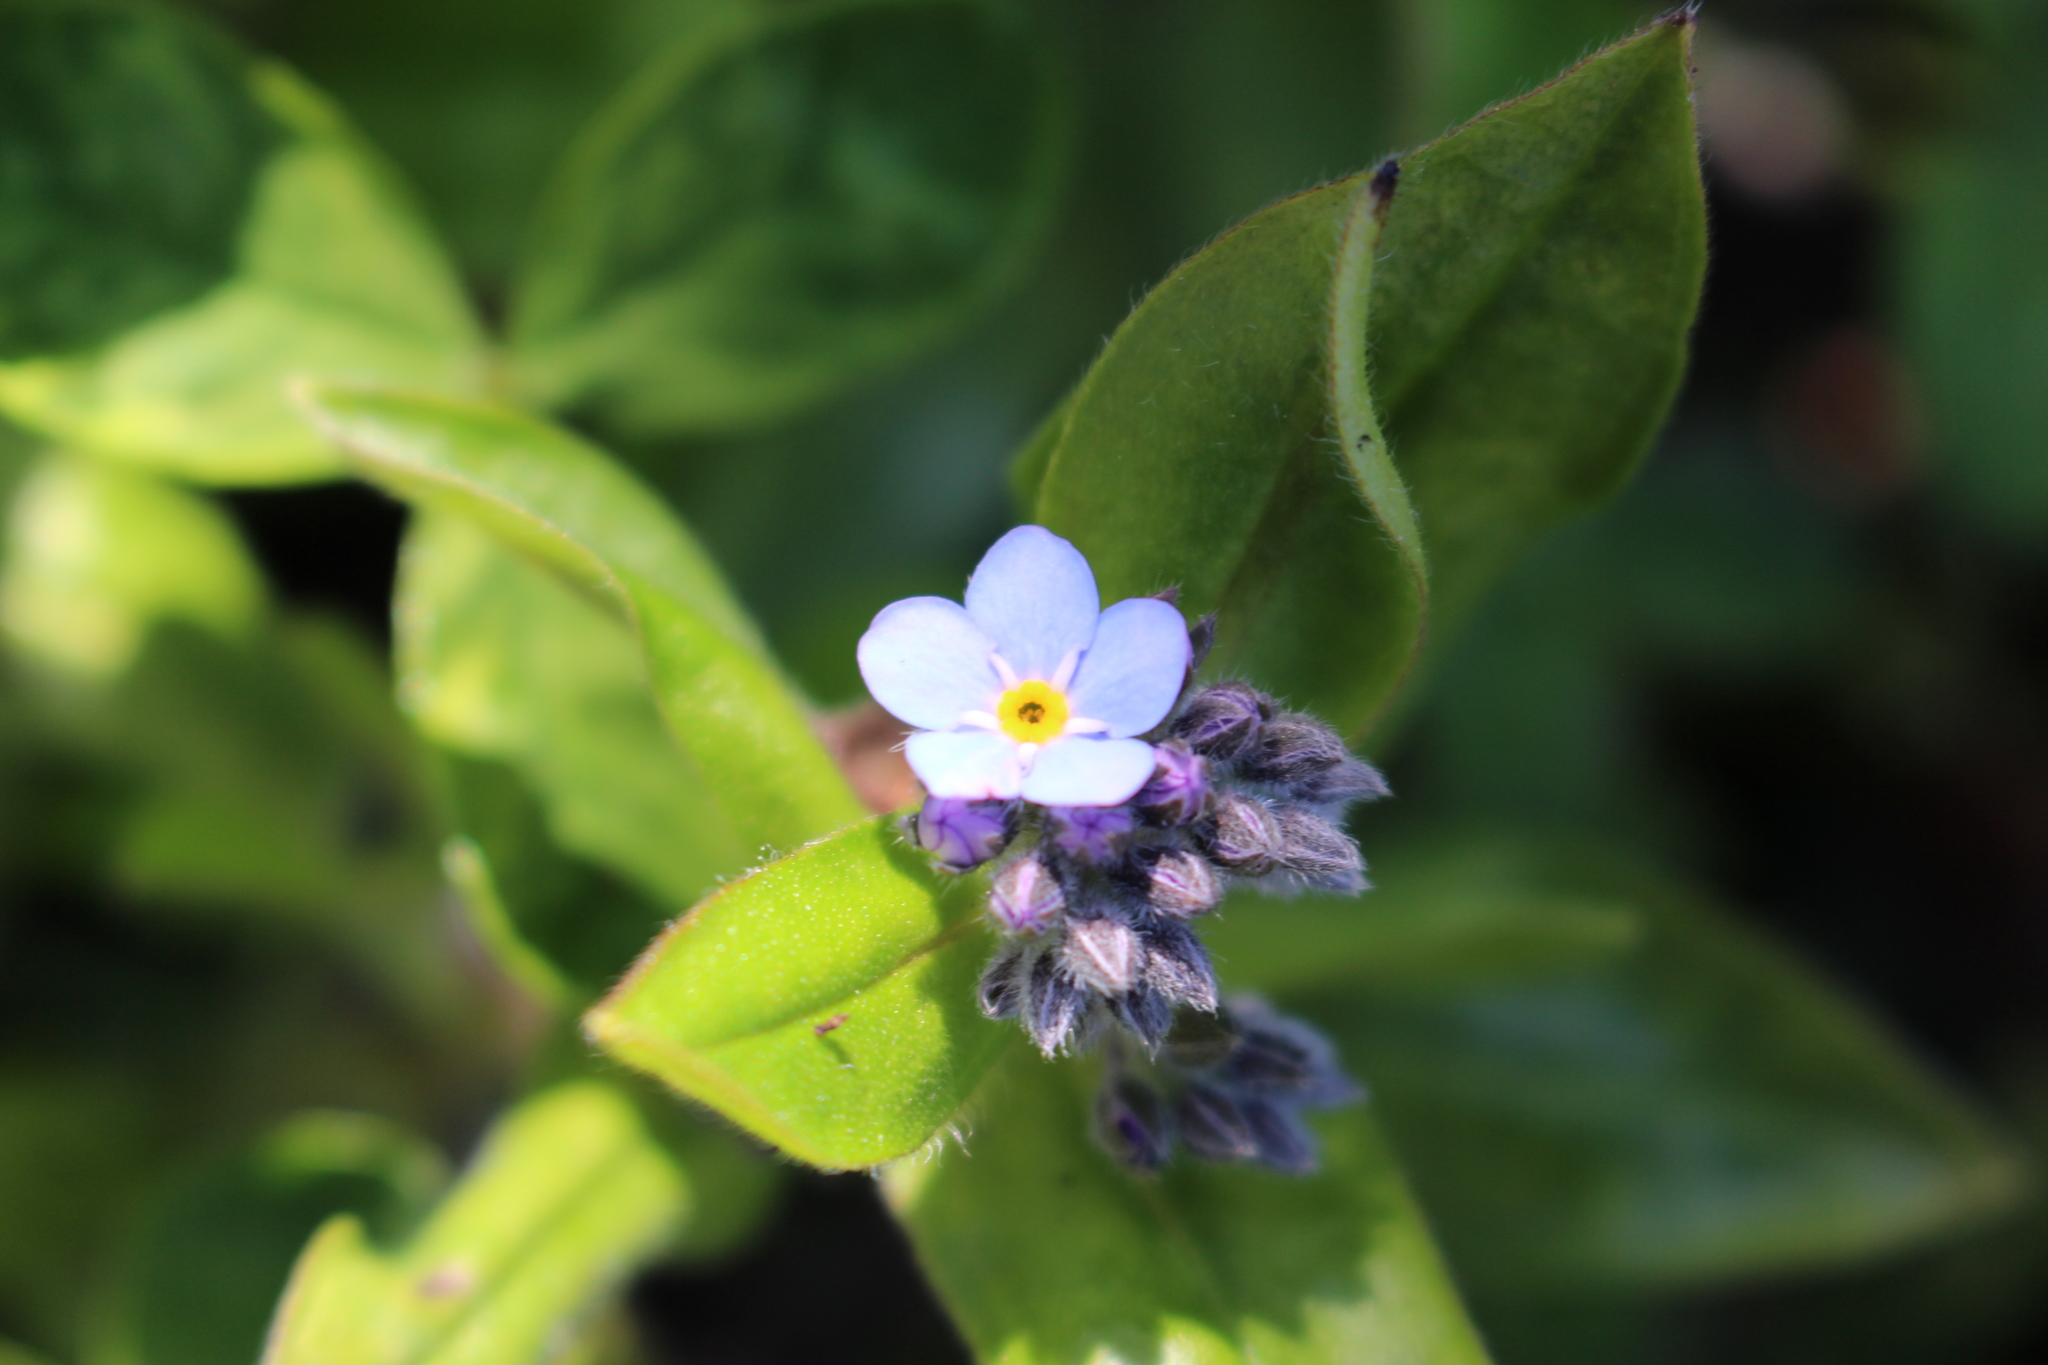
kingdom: Plantae
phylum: Tracheophyta
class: Magnoliopsida
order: Boraginales
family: Boraginaceae
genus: Myosotis
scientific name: Myosotis sylvatica
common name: Wood forget-me-not
